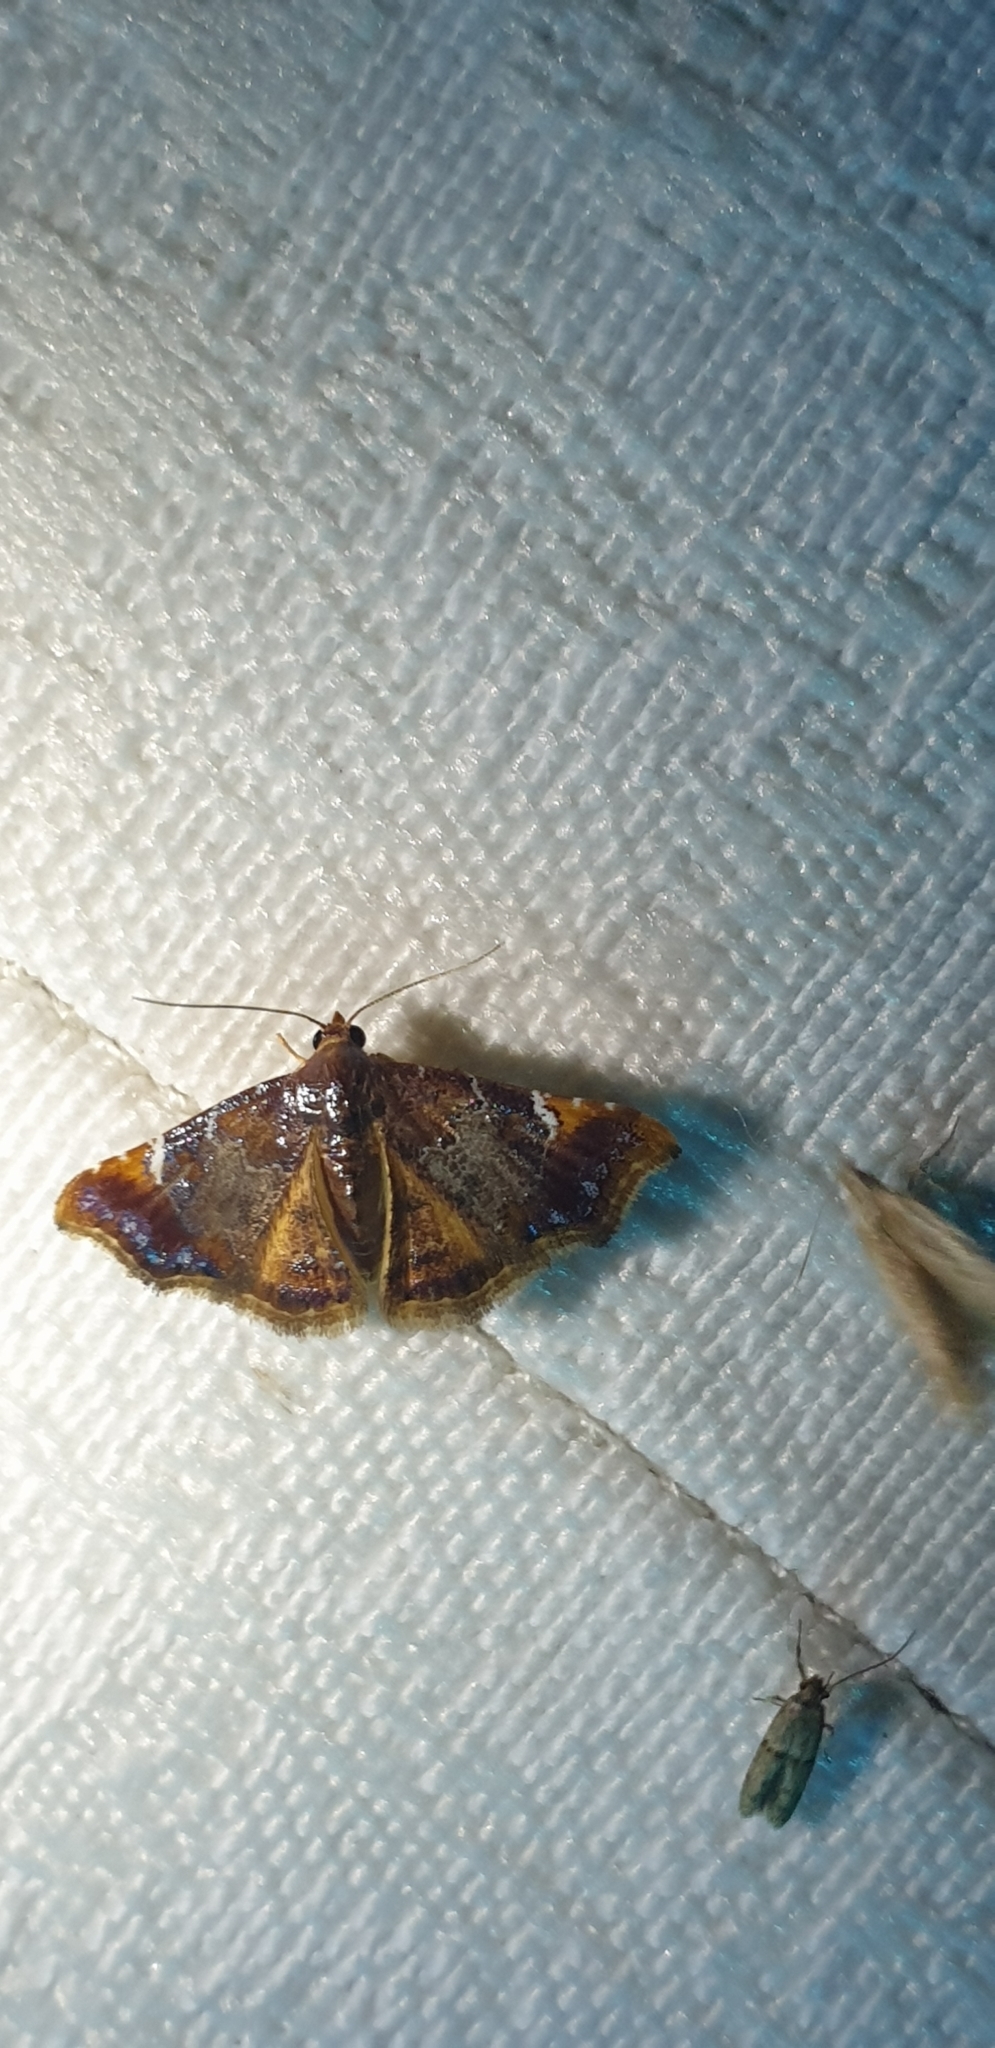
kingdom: Animalia
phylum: Arthropoda
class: Insecta
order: Lepidoptera
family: Erebidae
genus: Corgatha
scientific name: Corgatha drosera
